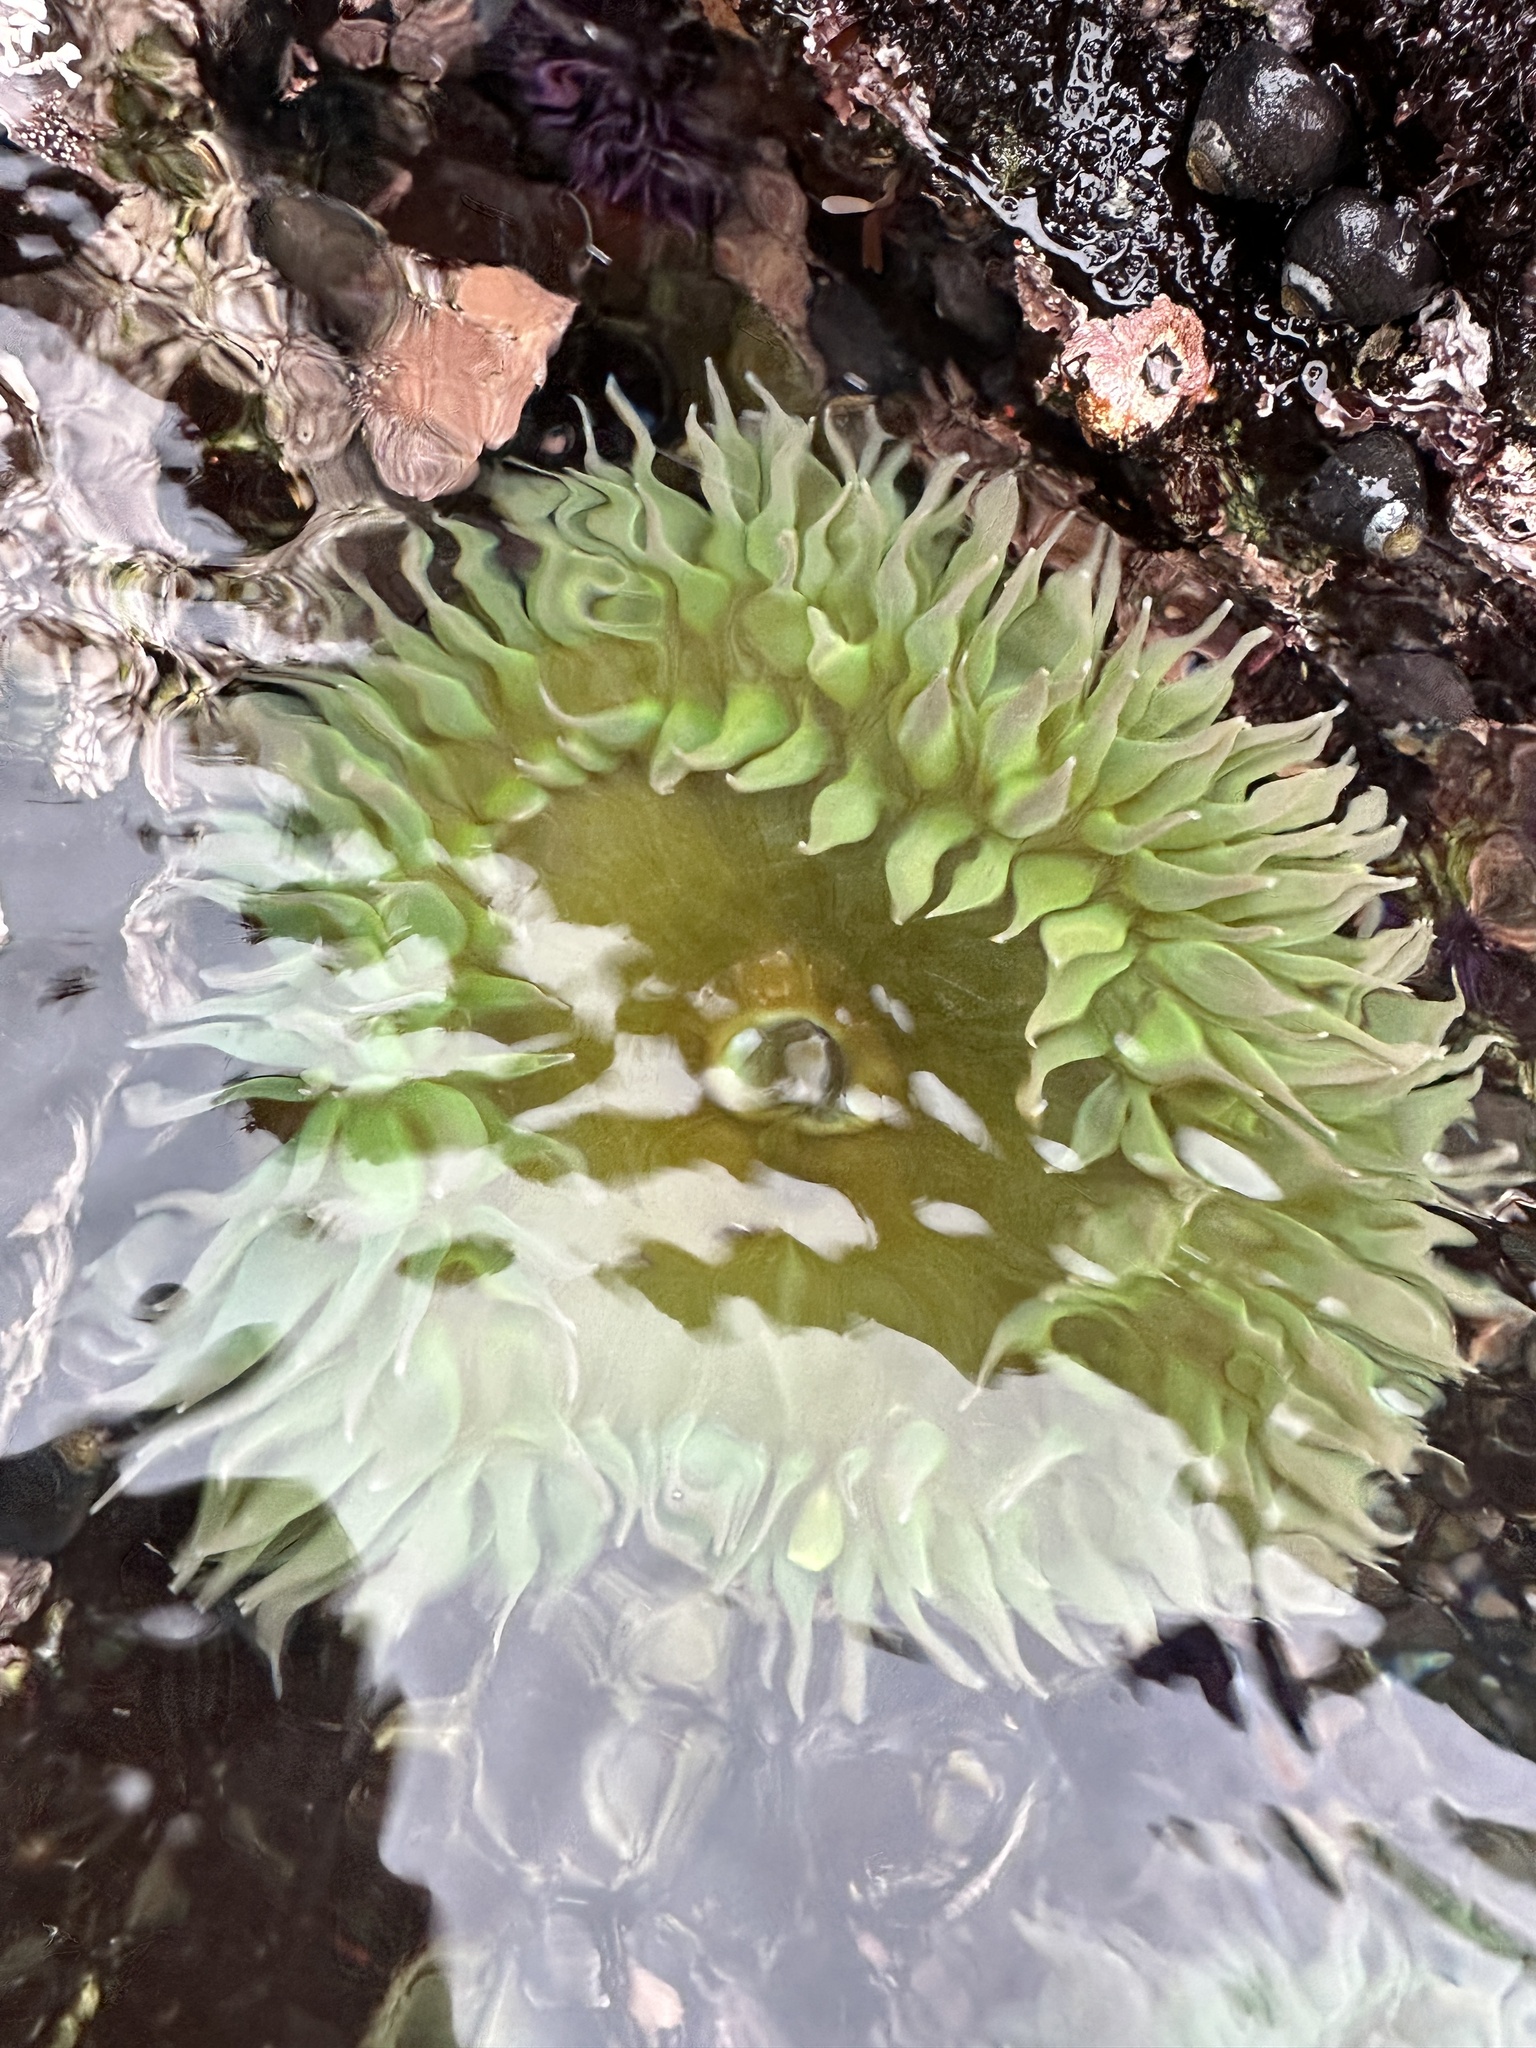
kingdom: Animalia
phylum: Cnidaria
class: Anthozoa
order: Actiniaria
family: Actiniidae
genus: Anthopleura
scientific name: Anthopleura xanthogrammica
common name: Giant green anemone
